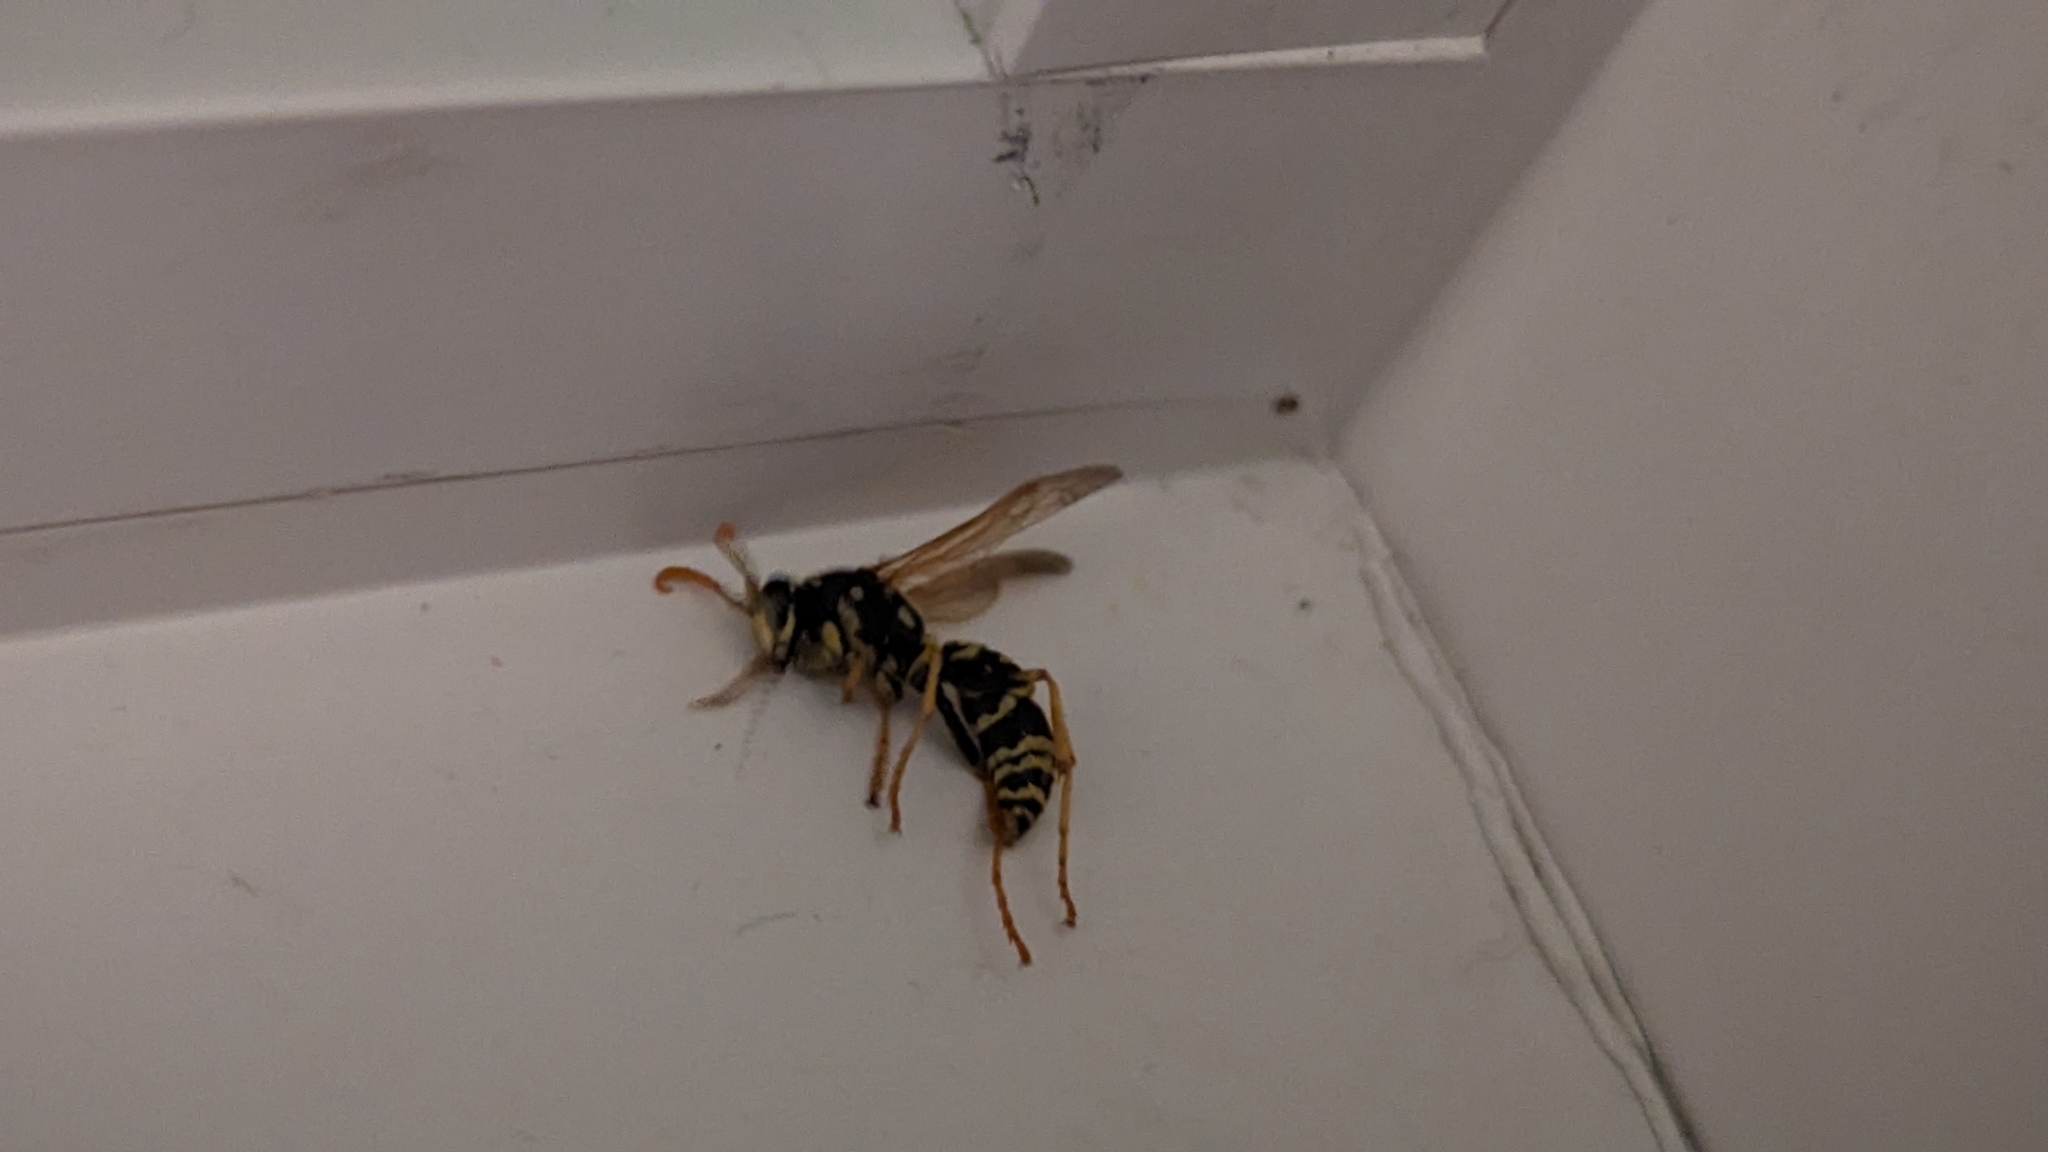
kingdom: Animalia
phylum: Arthropoda
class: Insecta
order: Hymenoptera
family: Eumenidae
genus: Polistes
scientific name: Polistes dominula
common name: Paper wasp
